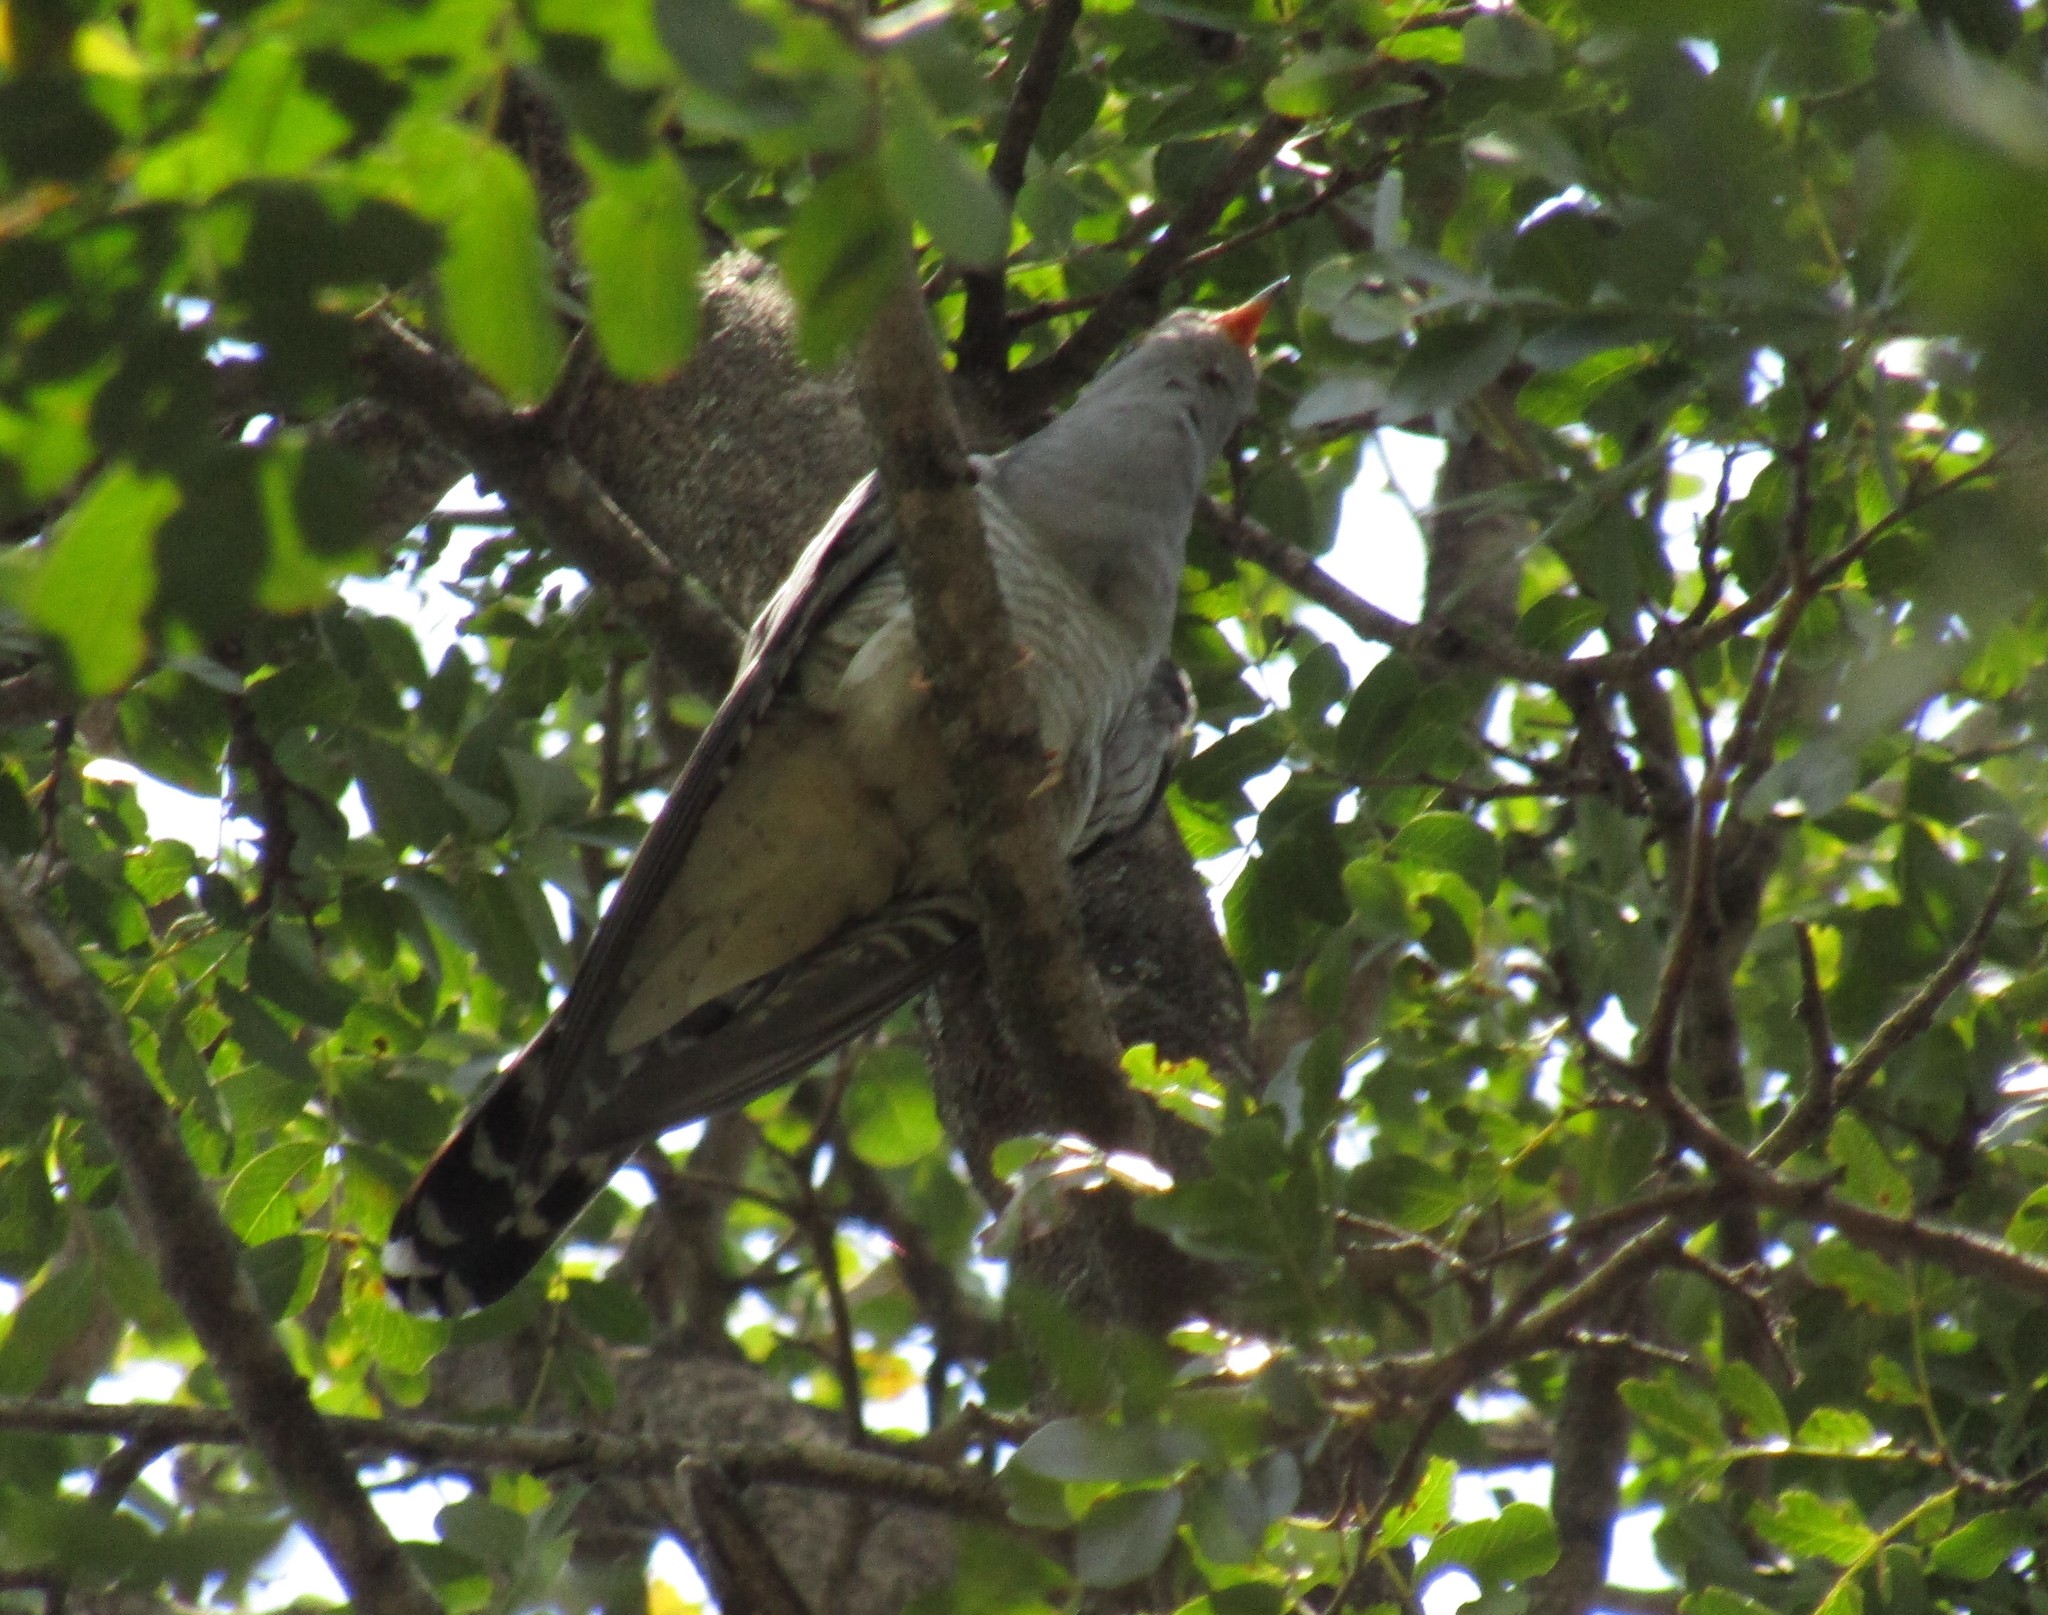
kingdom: Animalia
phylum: Chordata
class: Aves
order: Cuculiformes
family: Cuculidae
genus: Cuculus
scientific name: Cuculus gularis
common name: African cuckoo
